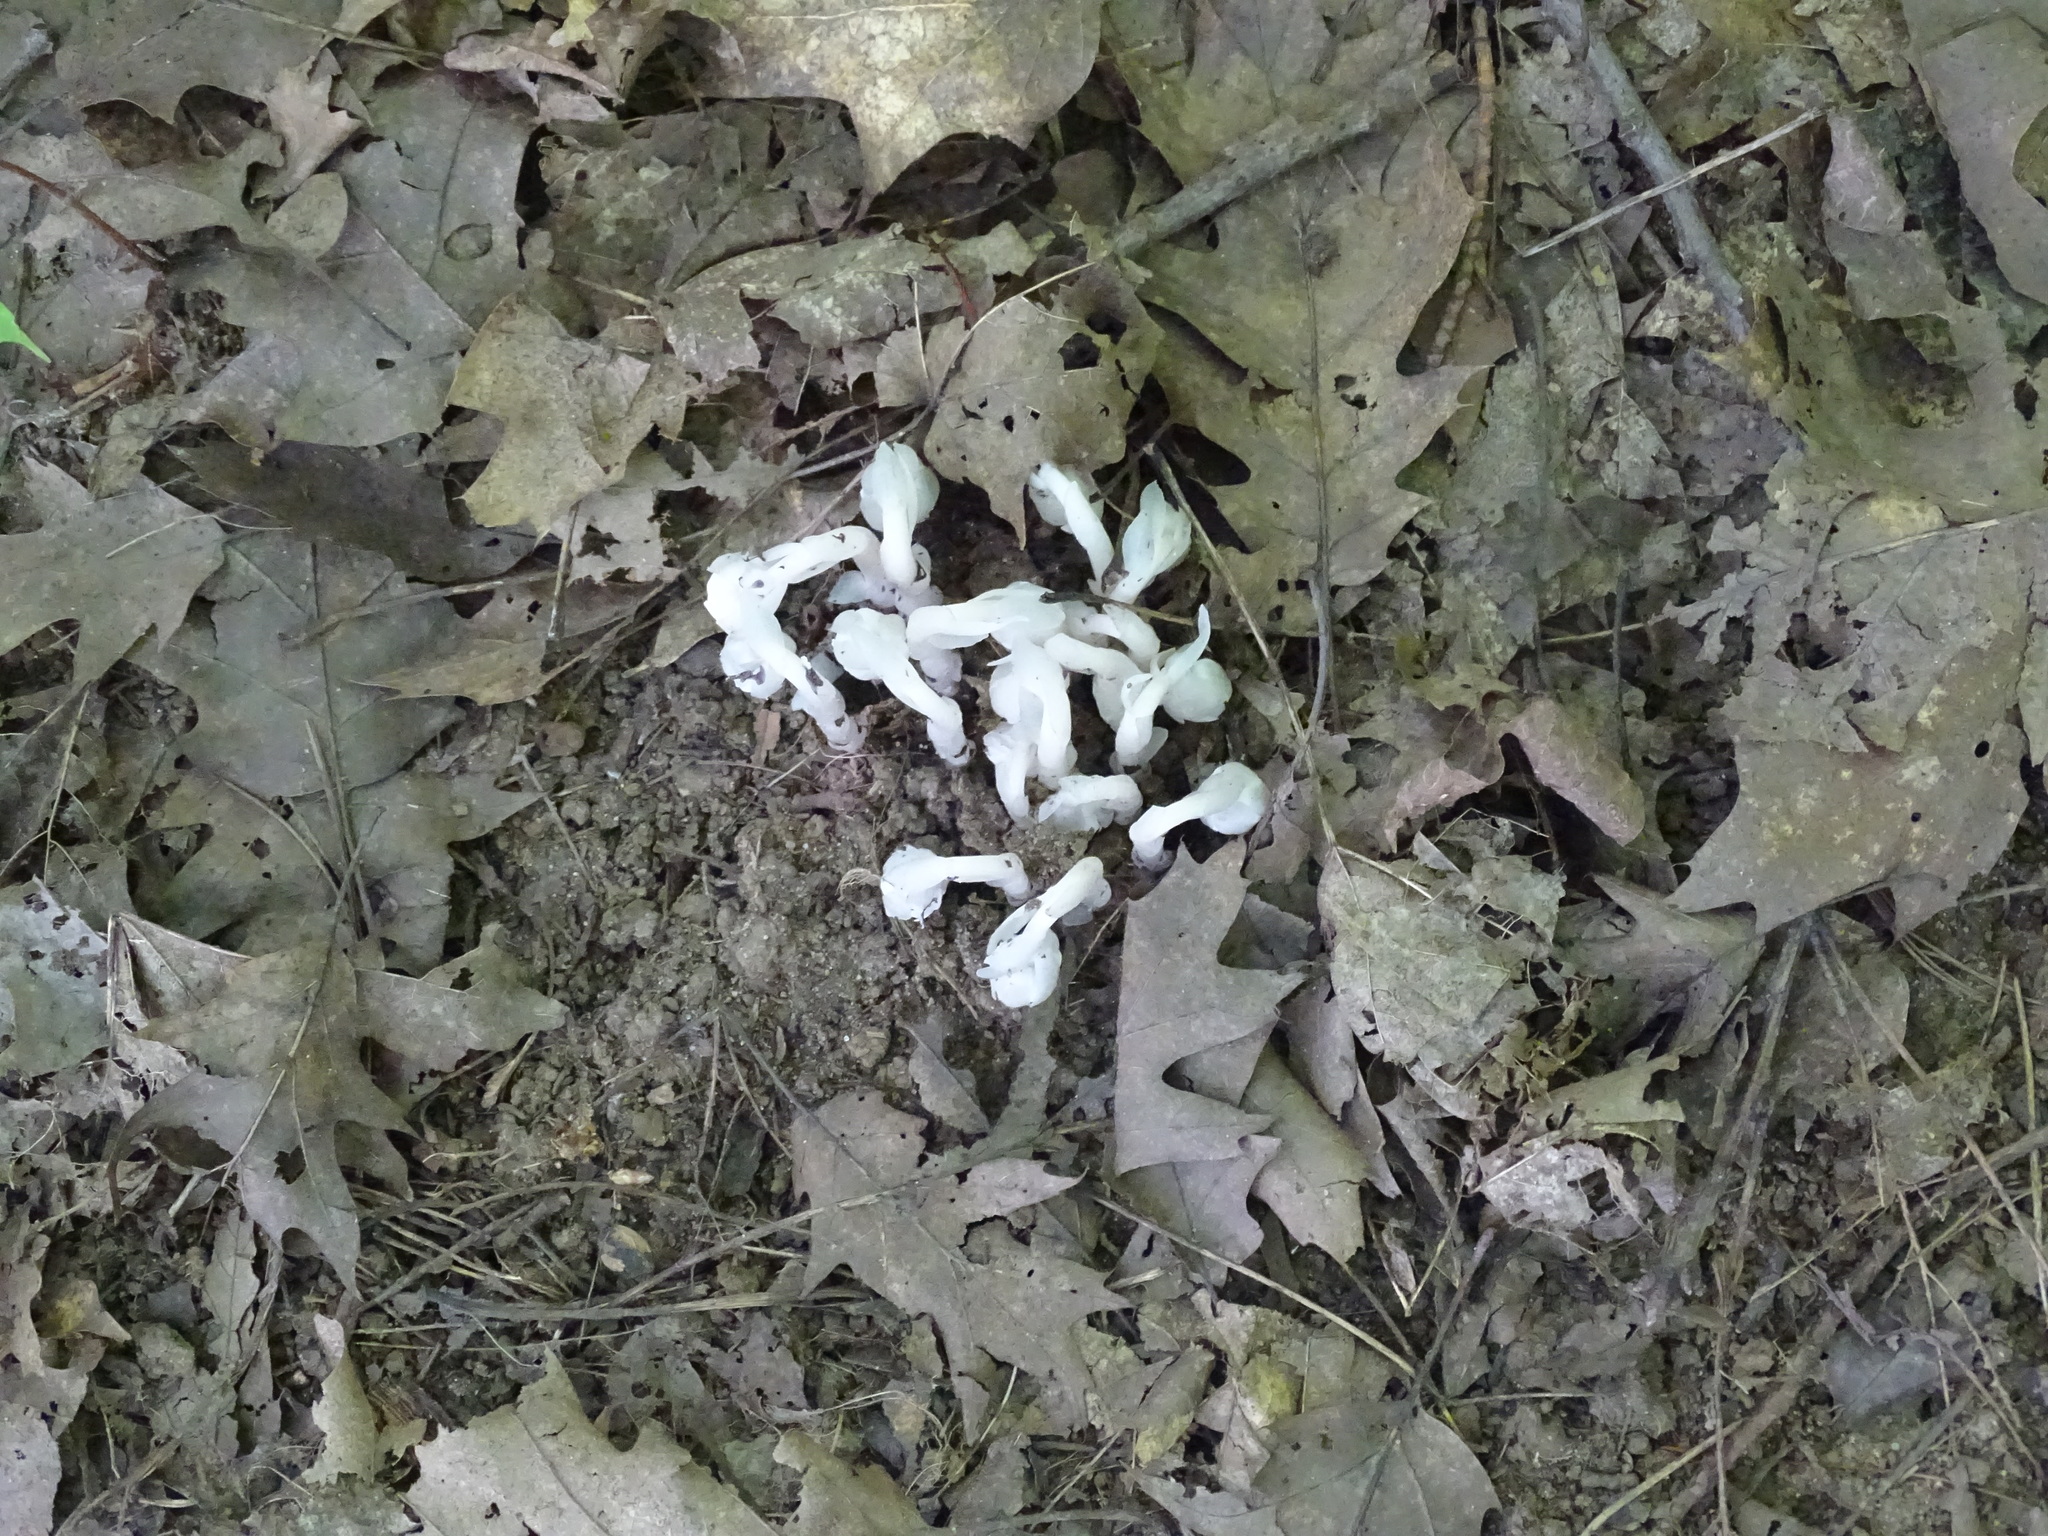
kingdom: Plantae
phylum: Tracheophyta
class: Magnoliopsida
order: Ericales
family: Ericaceae
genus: Monotropa
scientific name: Monotropa uniflora
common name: Convulsion root
